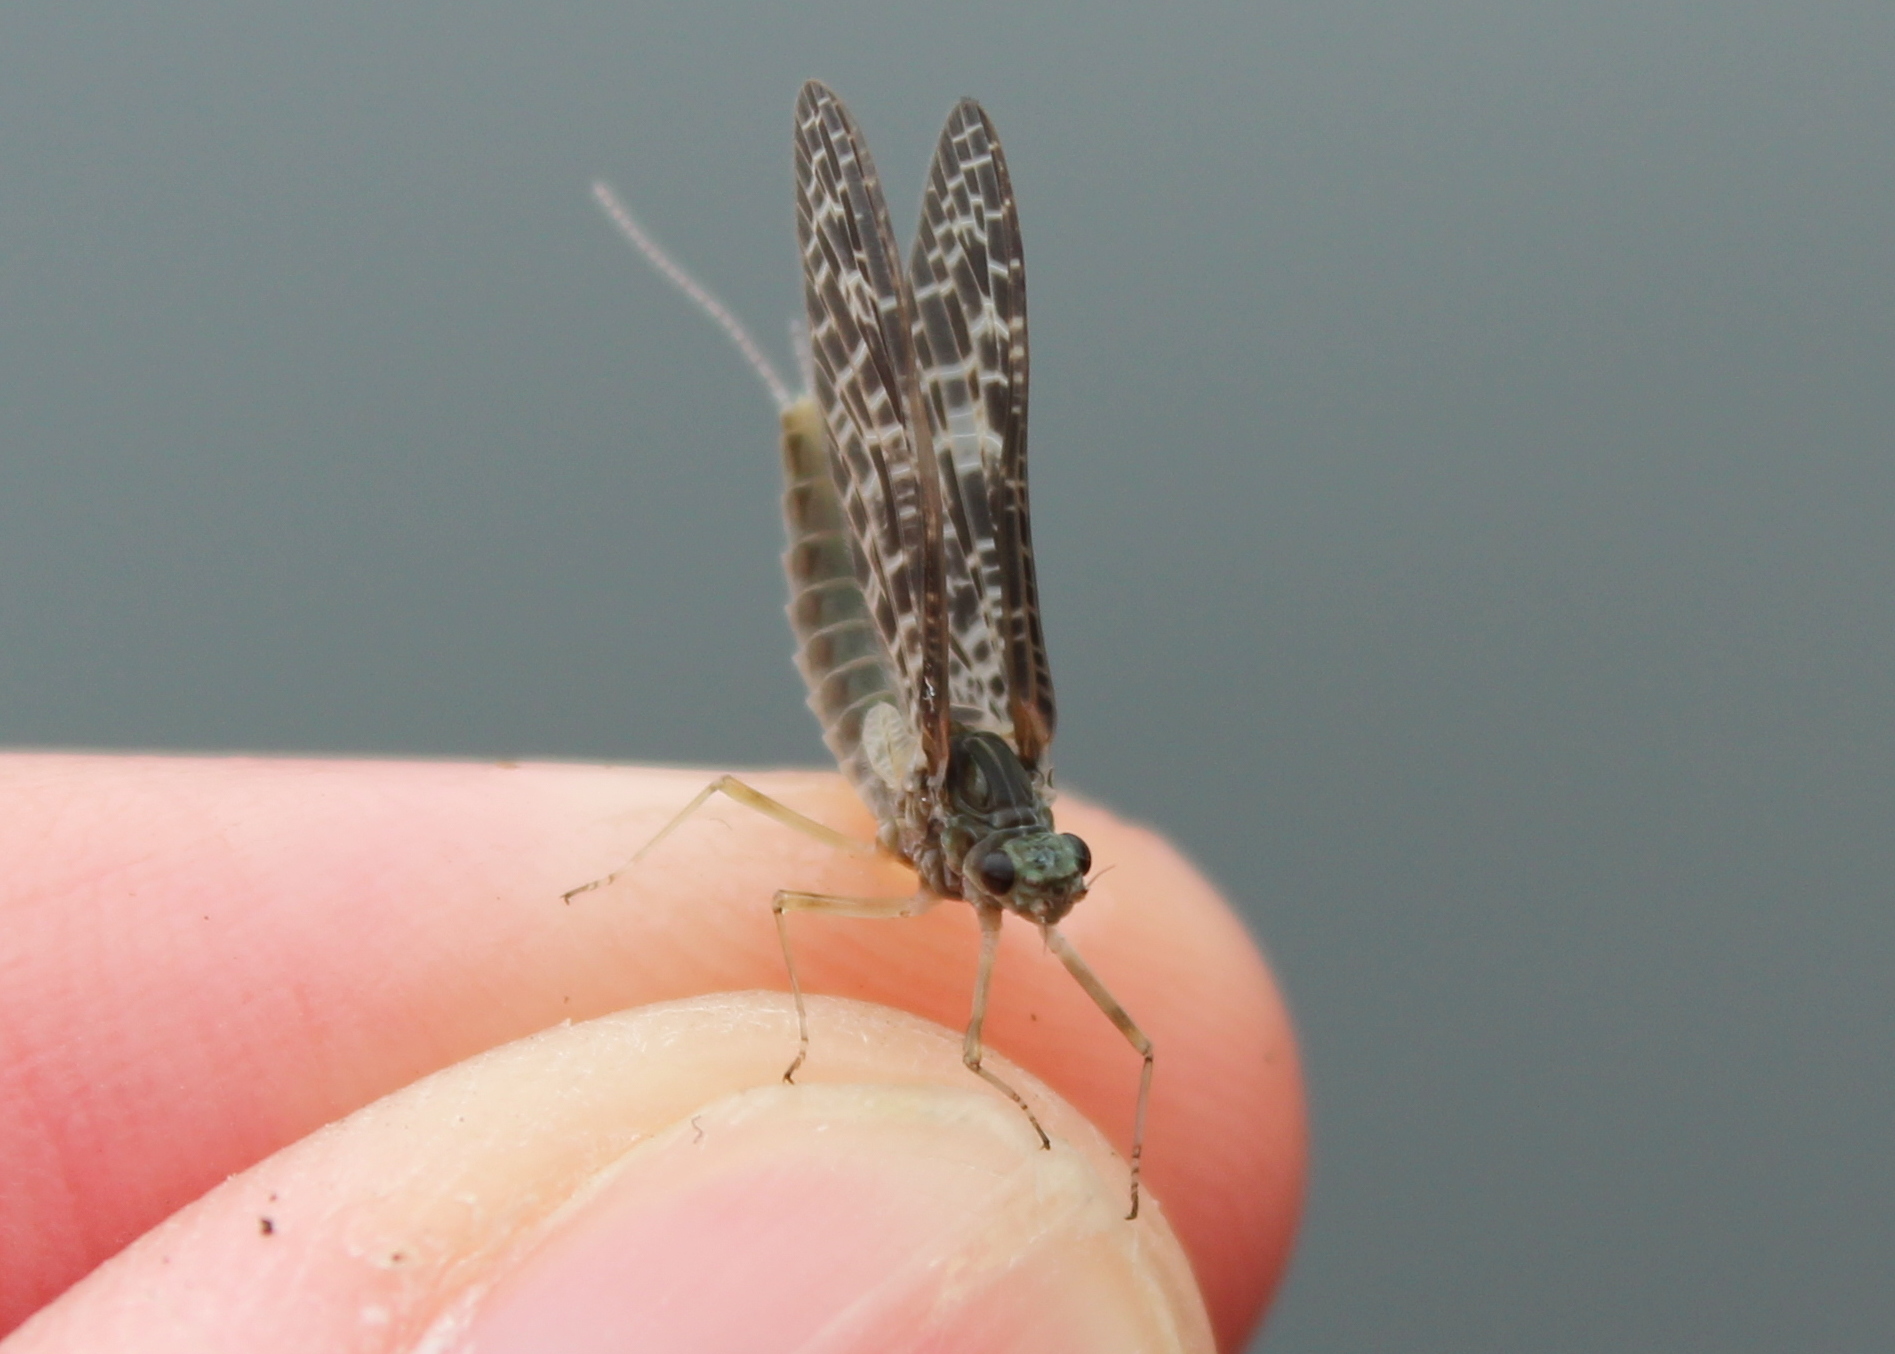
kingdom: Animalia
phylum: Arthropoda
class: Insecta
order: Ephemeroptera
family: Baetidae
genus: Callibaetis
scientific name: Callibaetis ferrugineus
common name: Red speckled dun
